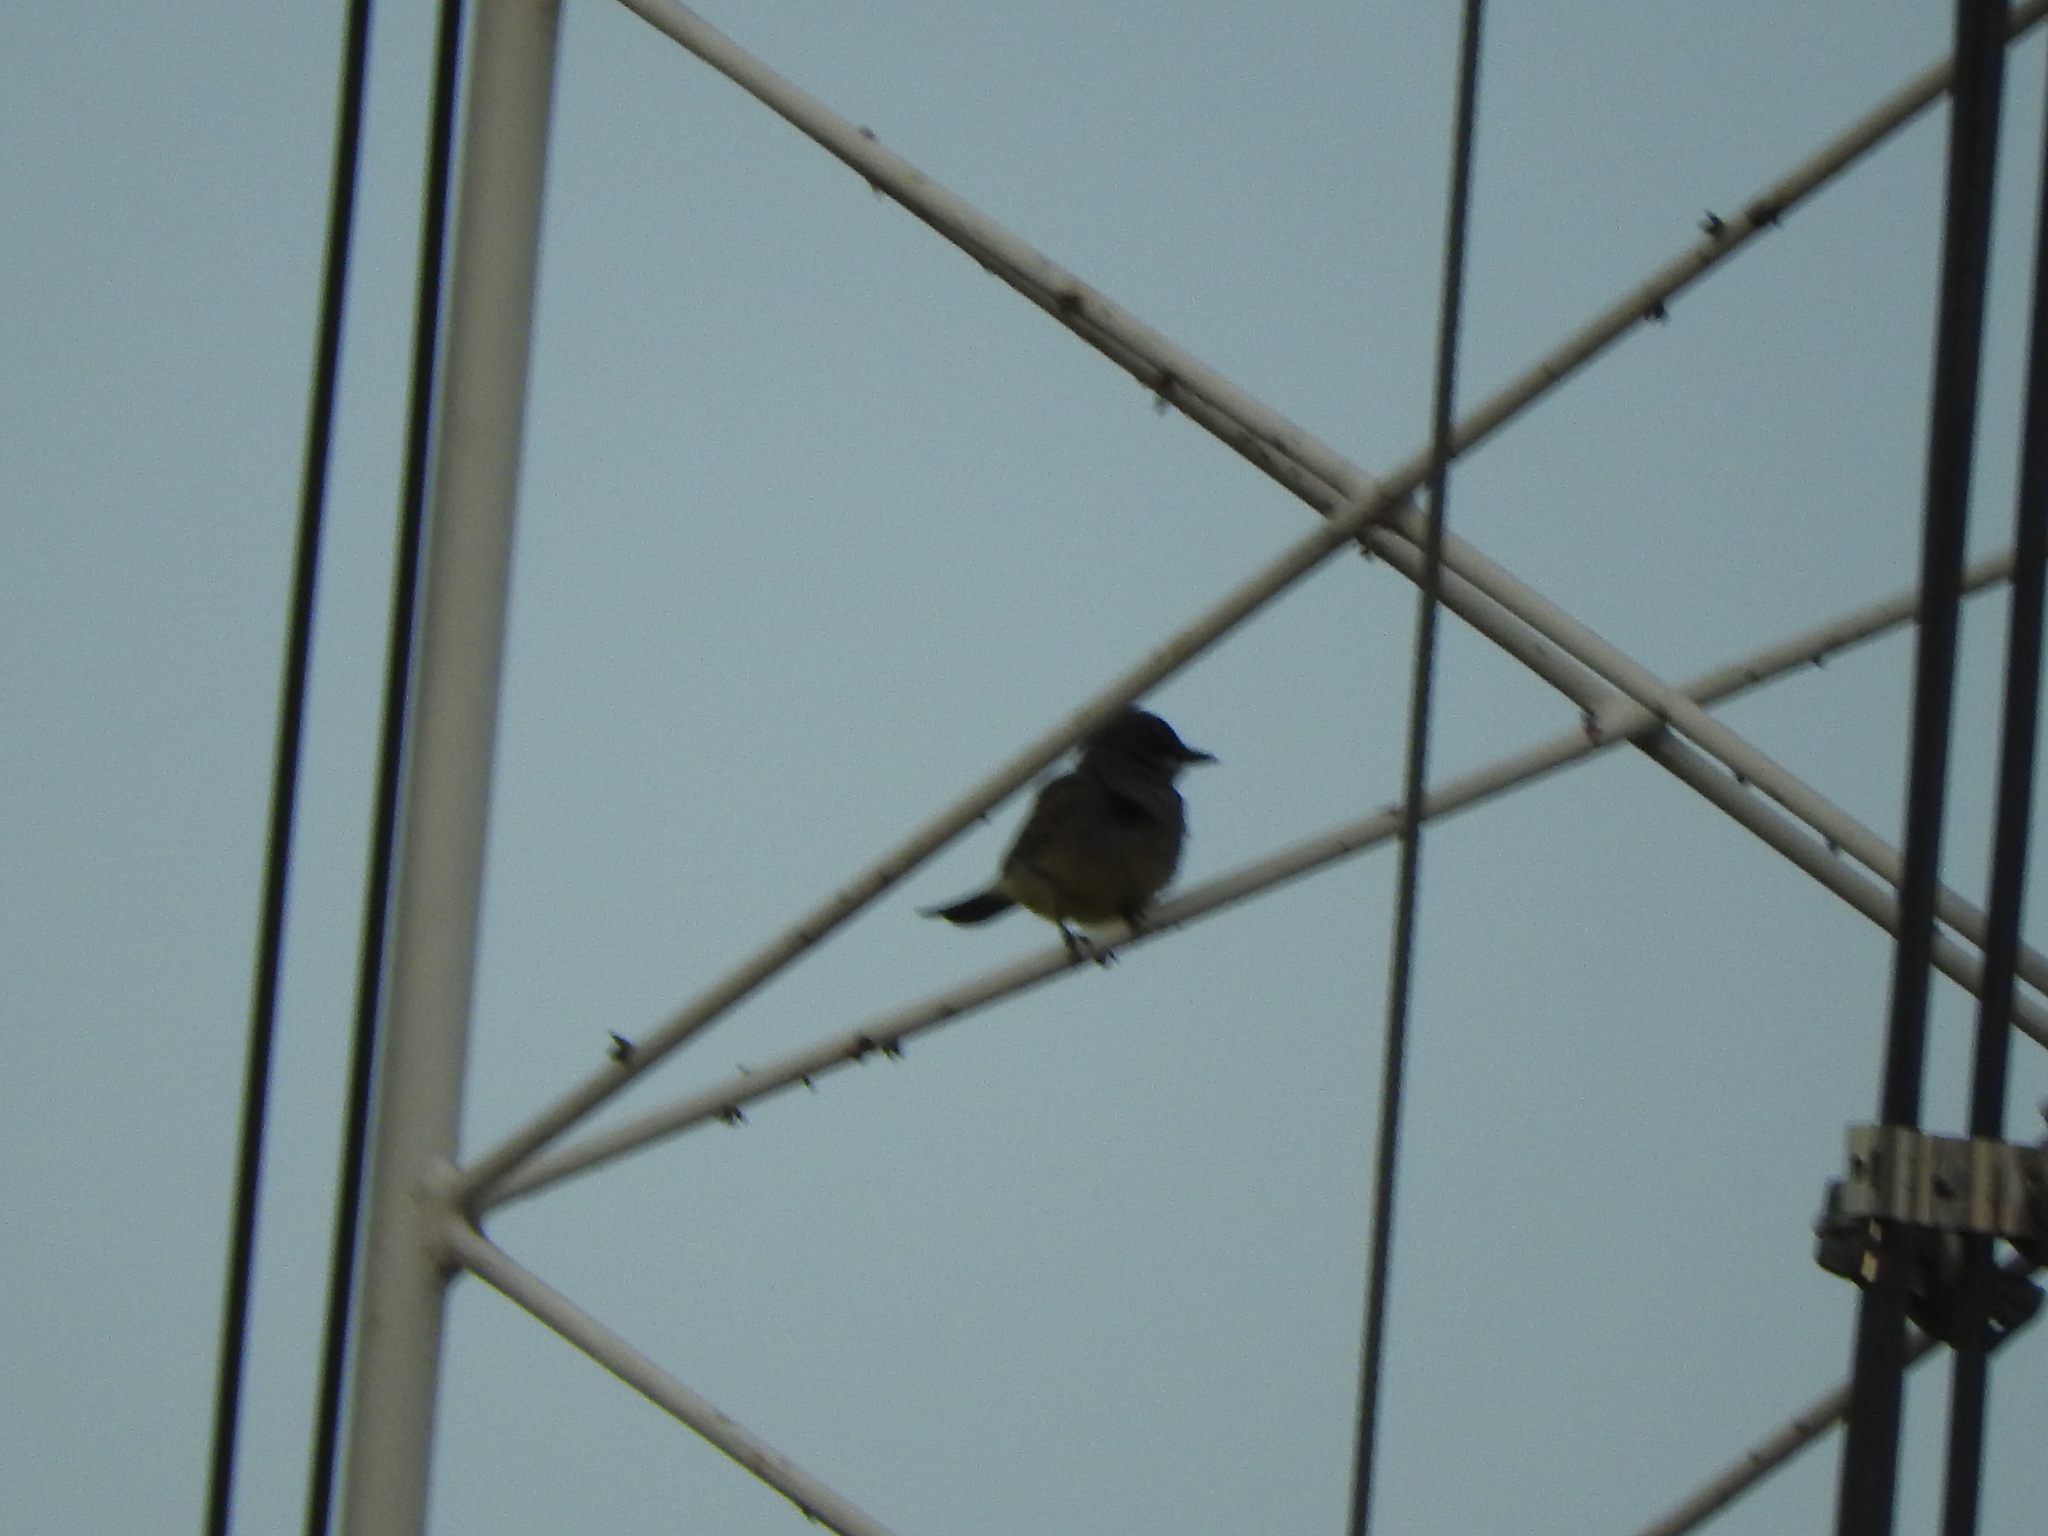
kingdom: Animalia
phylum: Chordata
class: Aves
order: Passeriformes
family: Tyrannidae
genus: Tyrannus
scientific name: Tyrannus vociferans
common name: Cassin's kingbird
